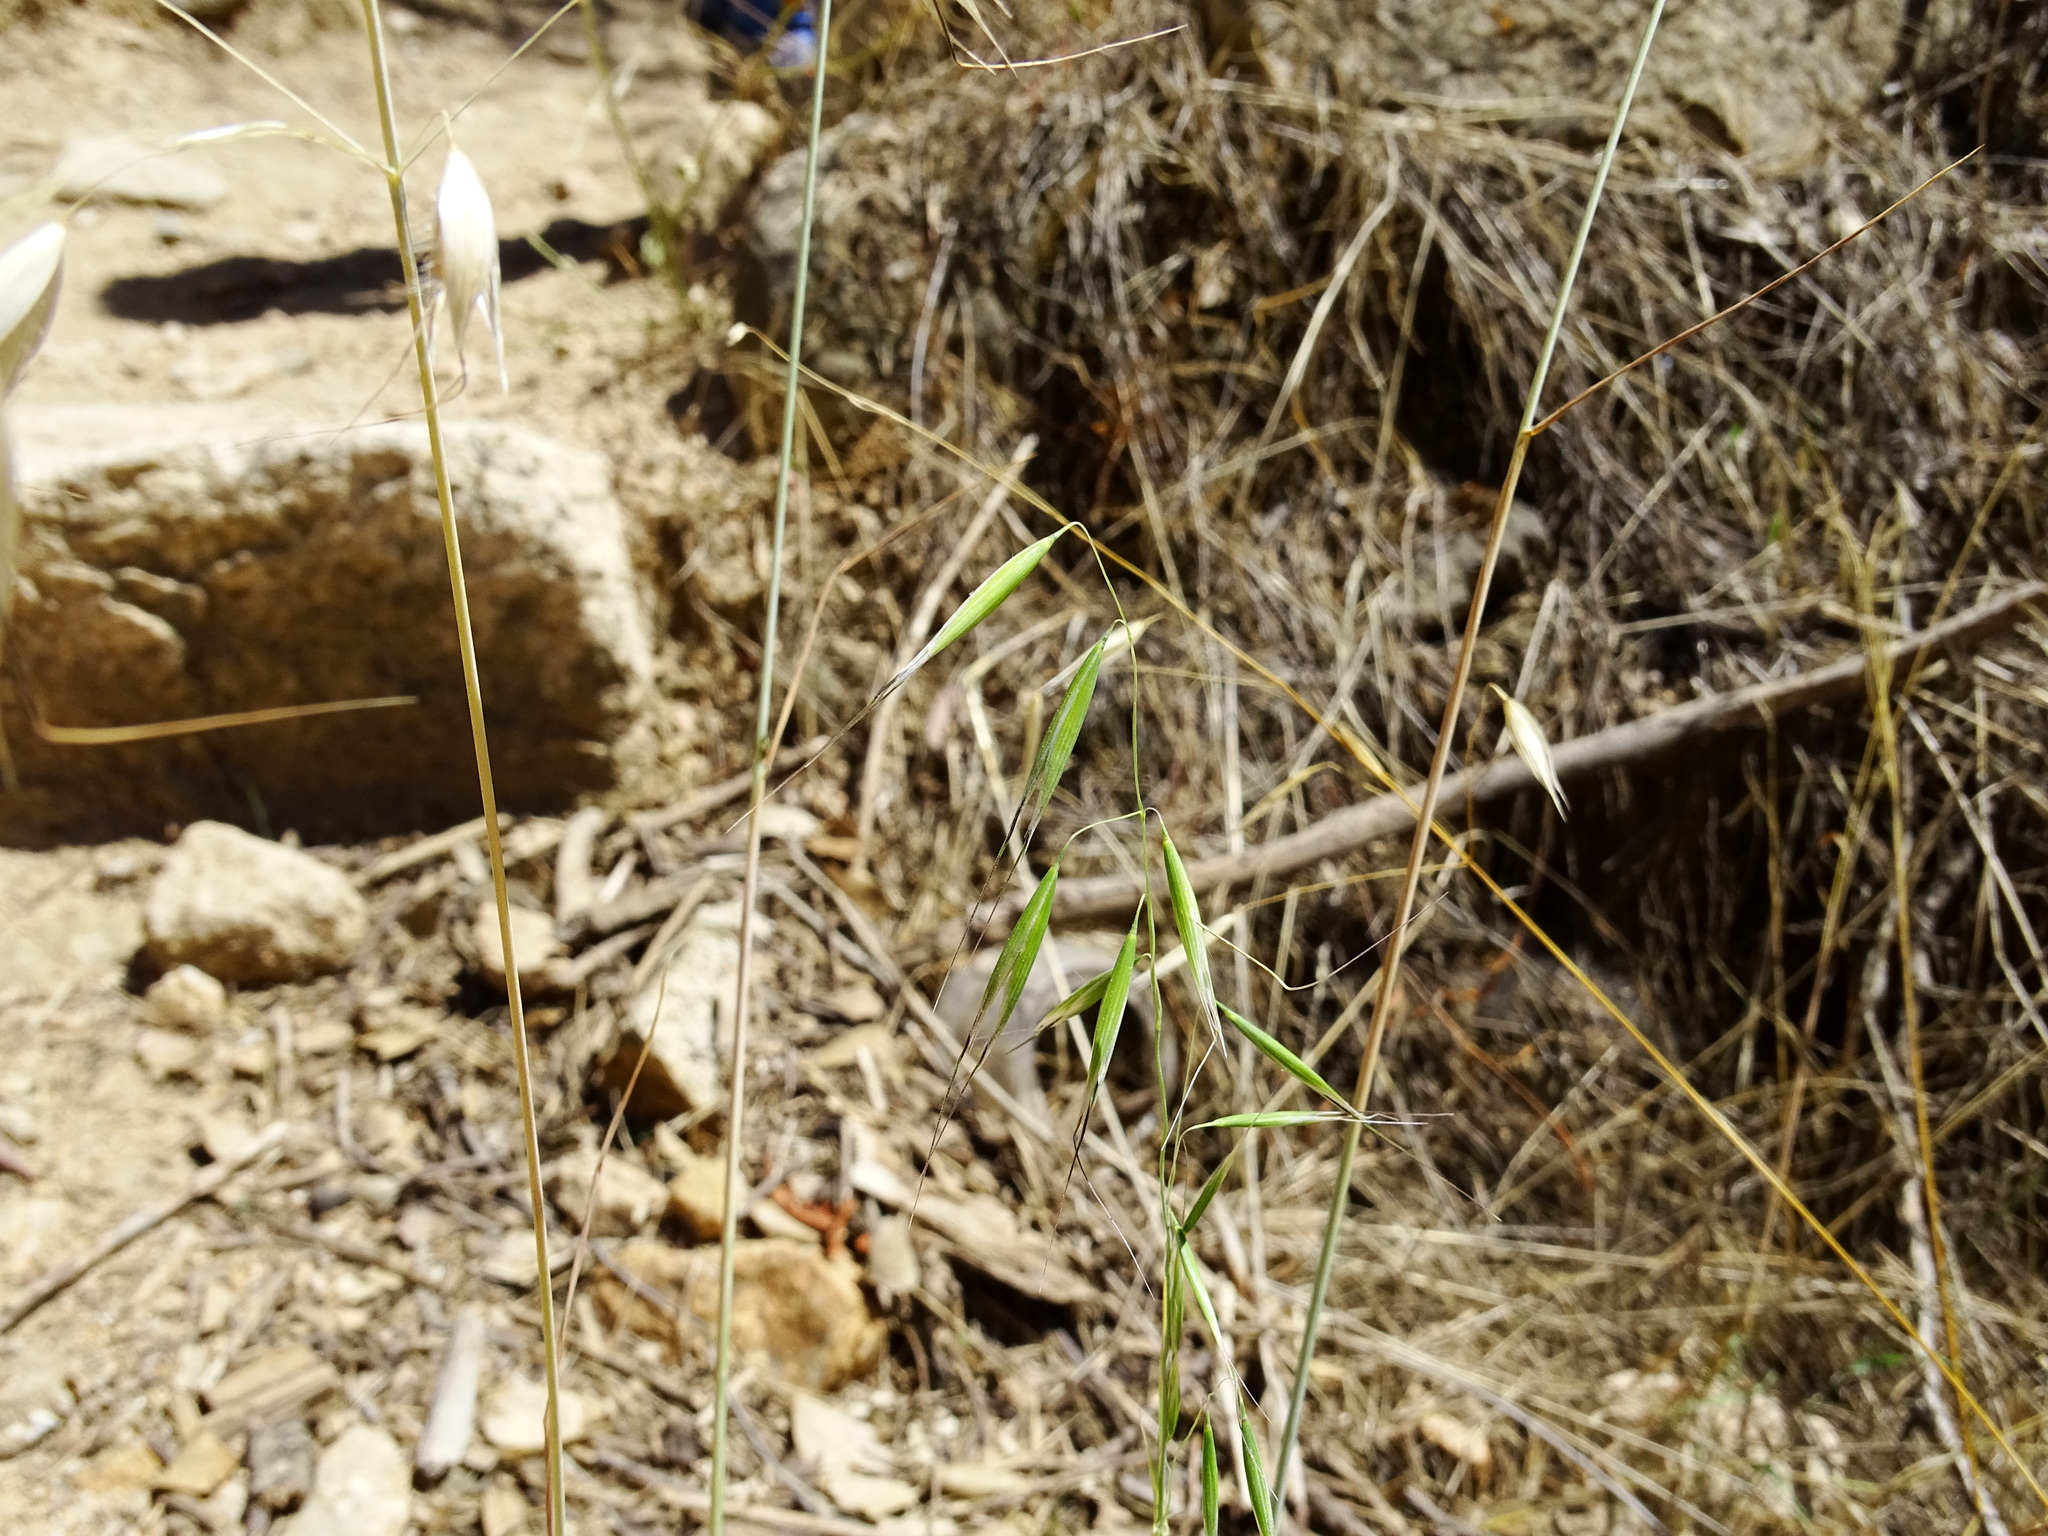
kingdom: Plantae
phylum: Tracheophyta
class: Liliopsida
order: Poales
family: Poaceae
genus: Avena
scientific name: Avena barbata
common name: Slender oat
